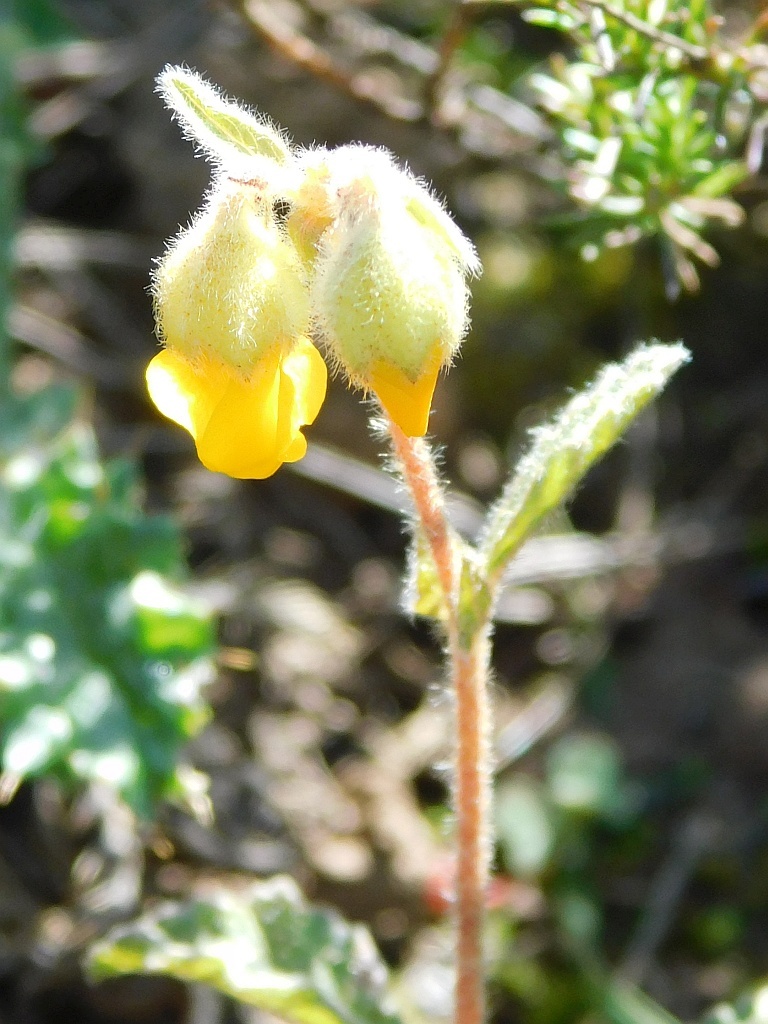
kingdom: Plantae
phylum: Tracheophyta
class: Magnoliopsida
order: Malvales
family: Malvaceae
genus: Hermannia
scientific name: Hermannia alnifolia
